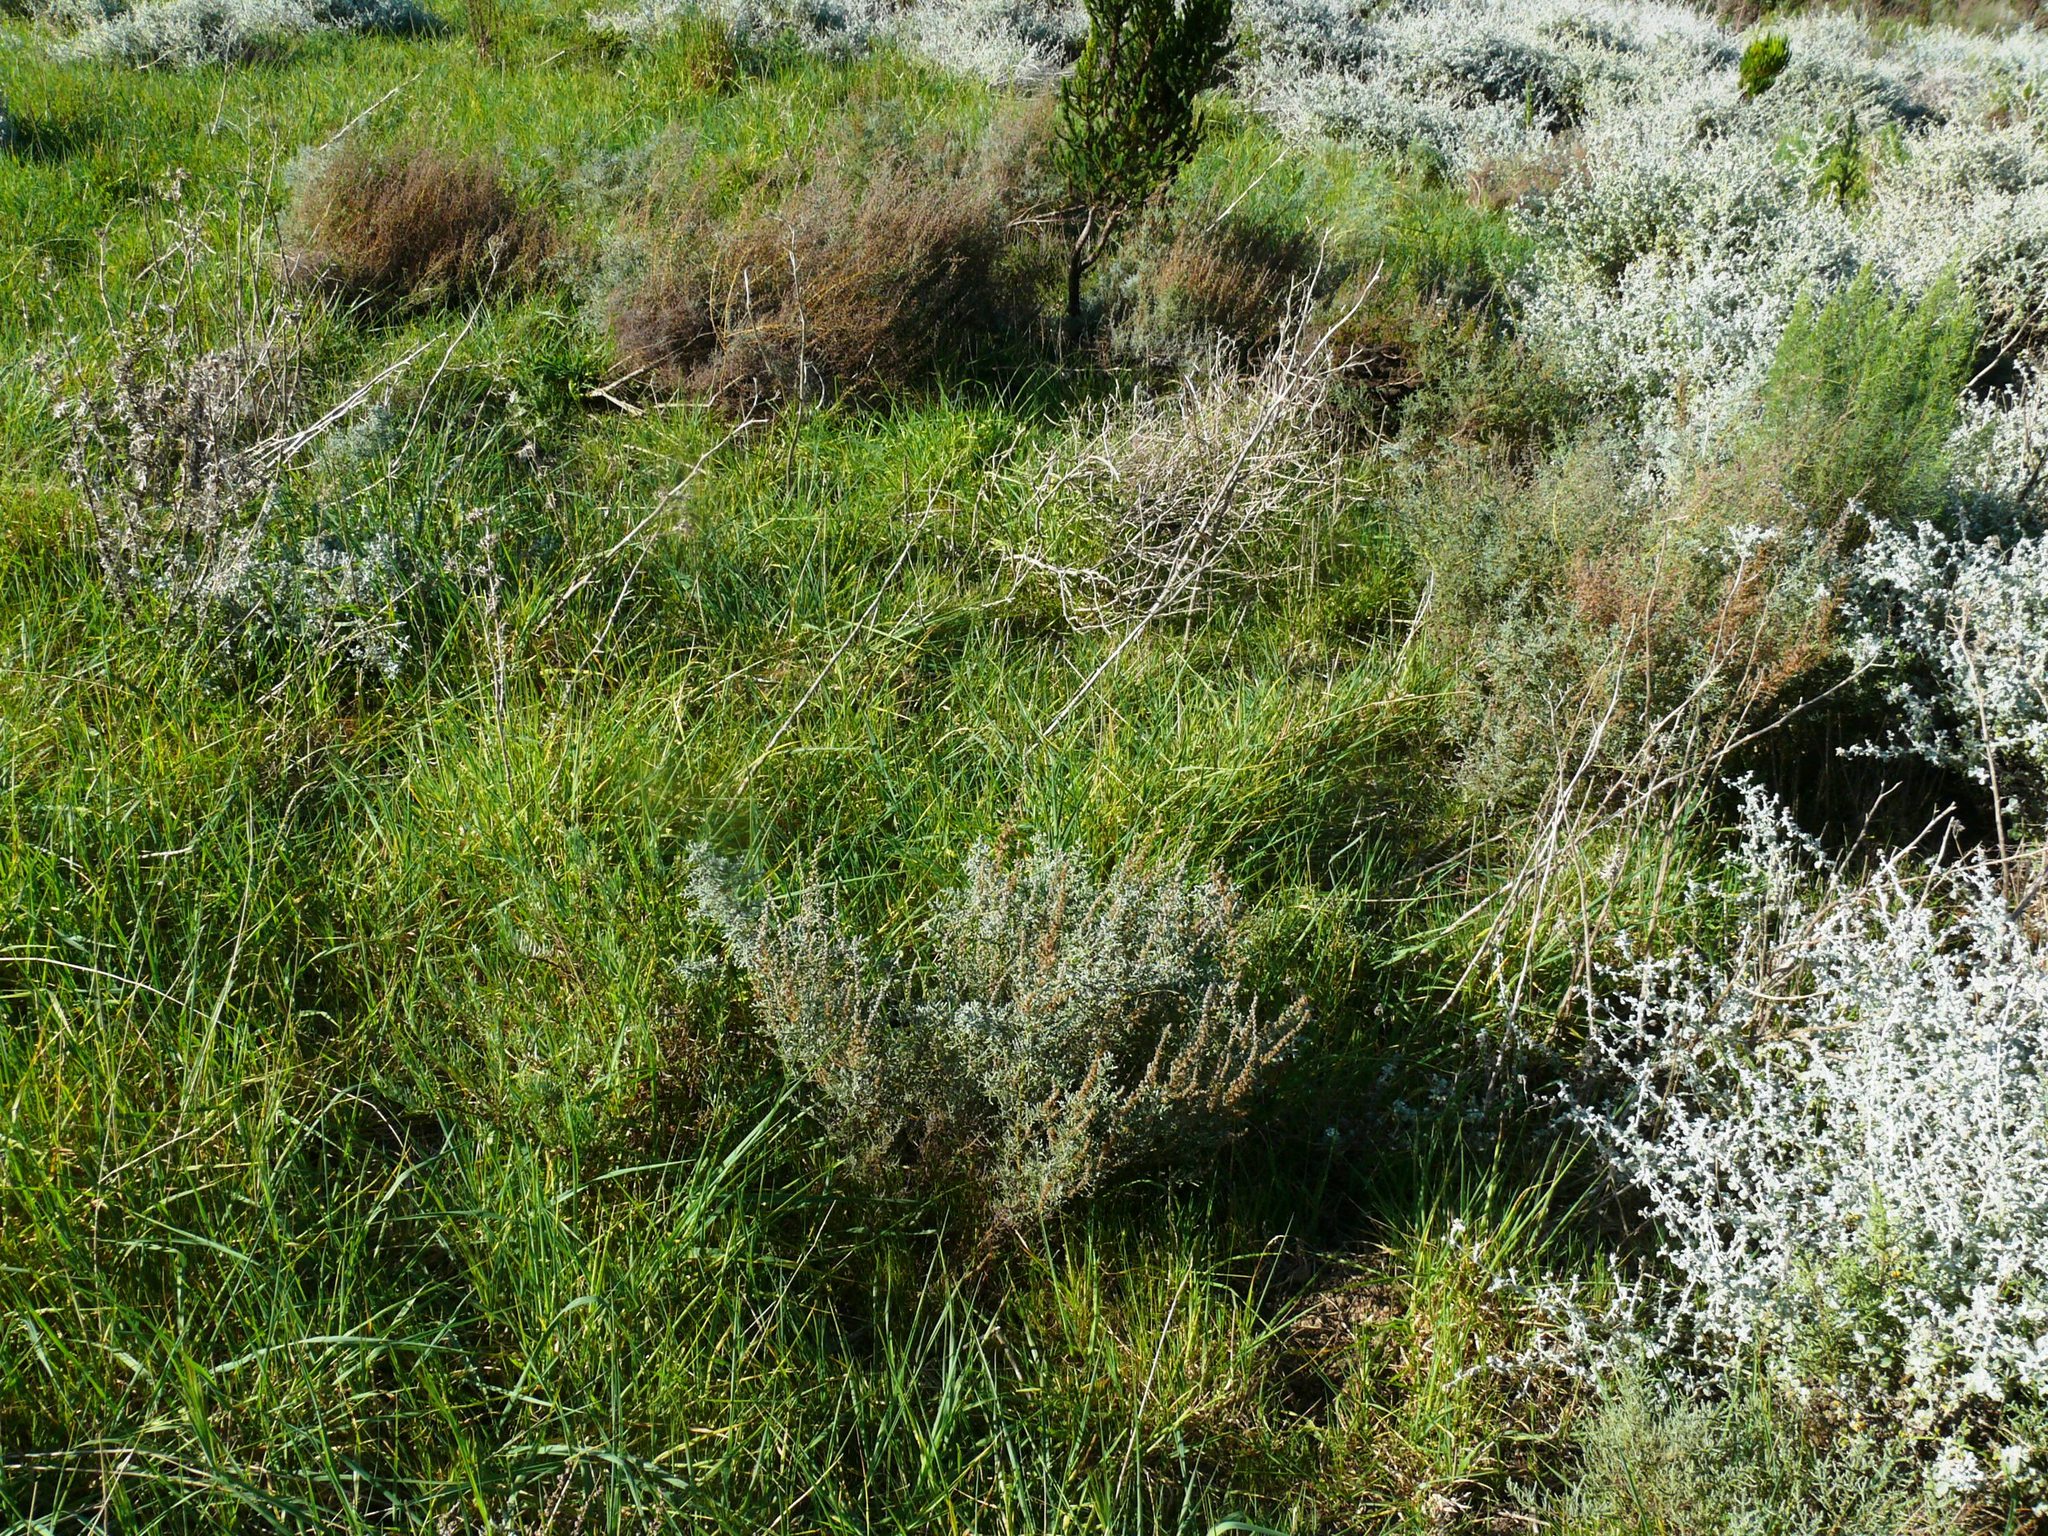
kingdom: Plantae
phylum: Tracheophyta
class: Magnoliopsida
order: Asterales
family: Asteraceae
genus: Seriphium
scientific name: Seriphium plumosum
